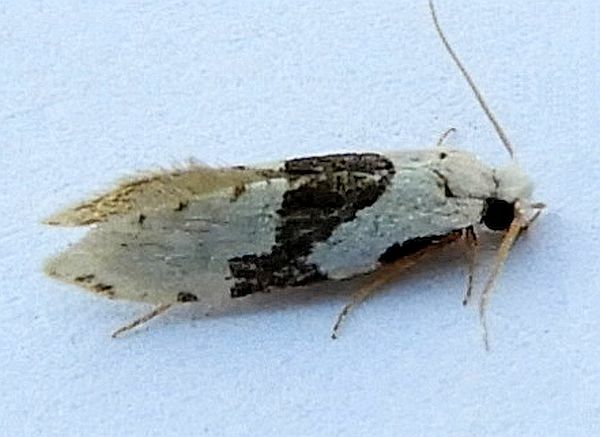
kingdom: Animalia
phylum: Arthropoda
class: Insecta
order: Lepidoptera
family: Tineidae
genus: Nemapogon
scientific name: Nemapogon clematella
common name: Barred white clothes
